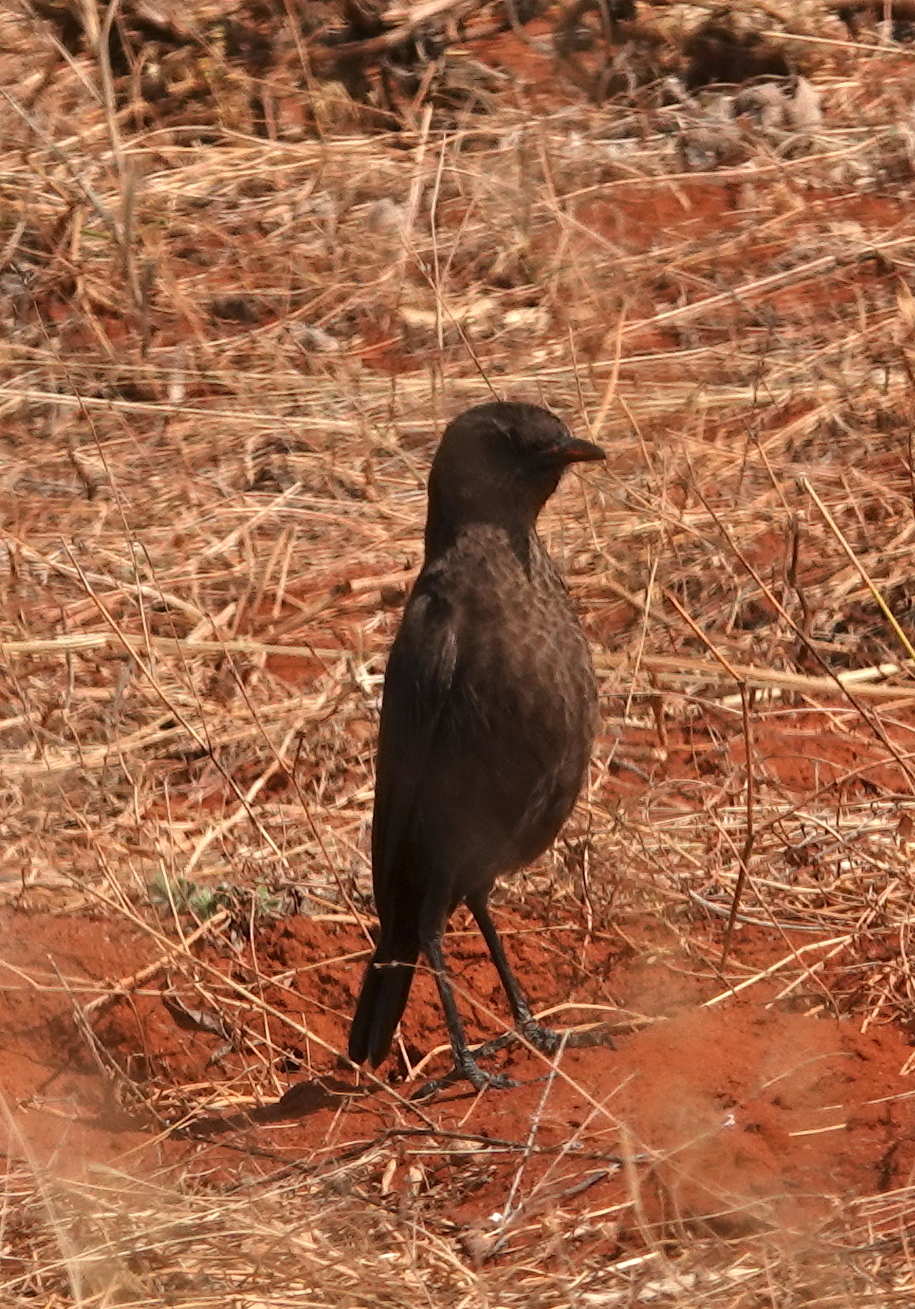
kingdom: Animalia
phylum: Chordata
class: Aves
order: Passeriformes
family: Muscicapidae
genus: Myrmecocichla
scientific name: Myrmecocichla formicivora
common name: Ant-eating chat
